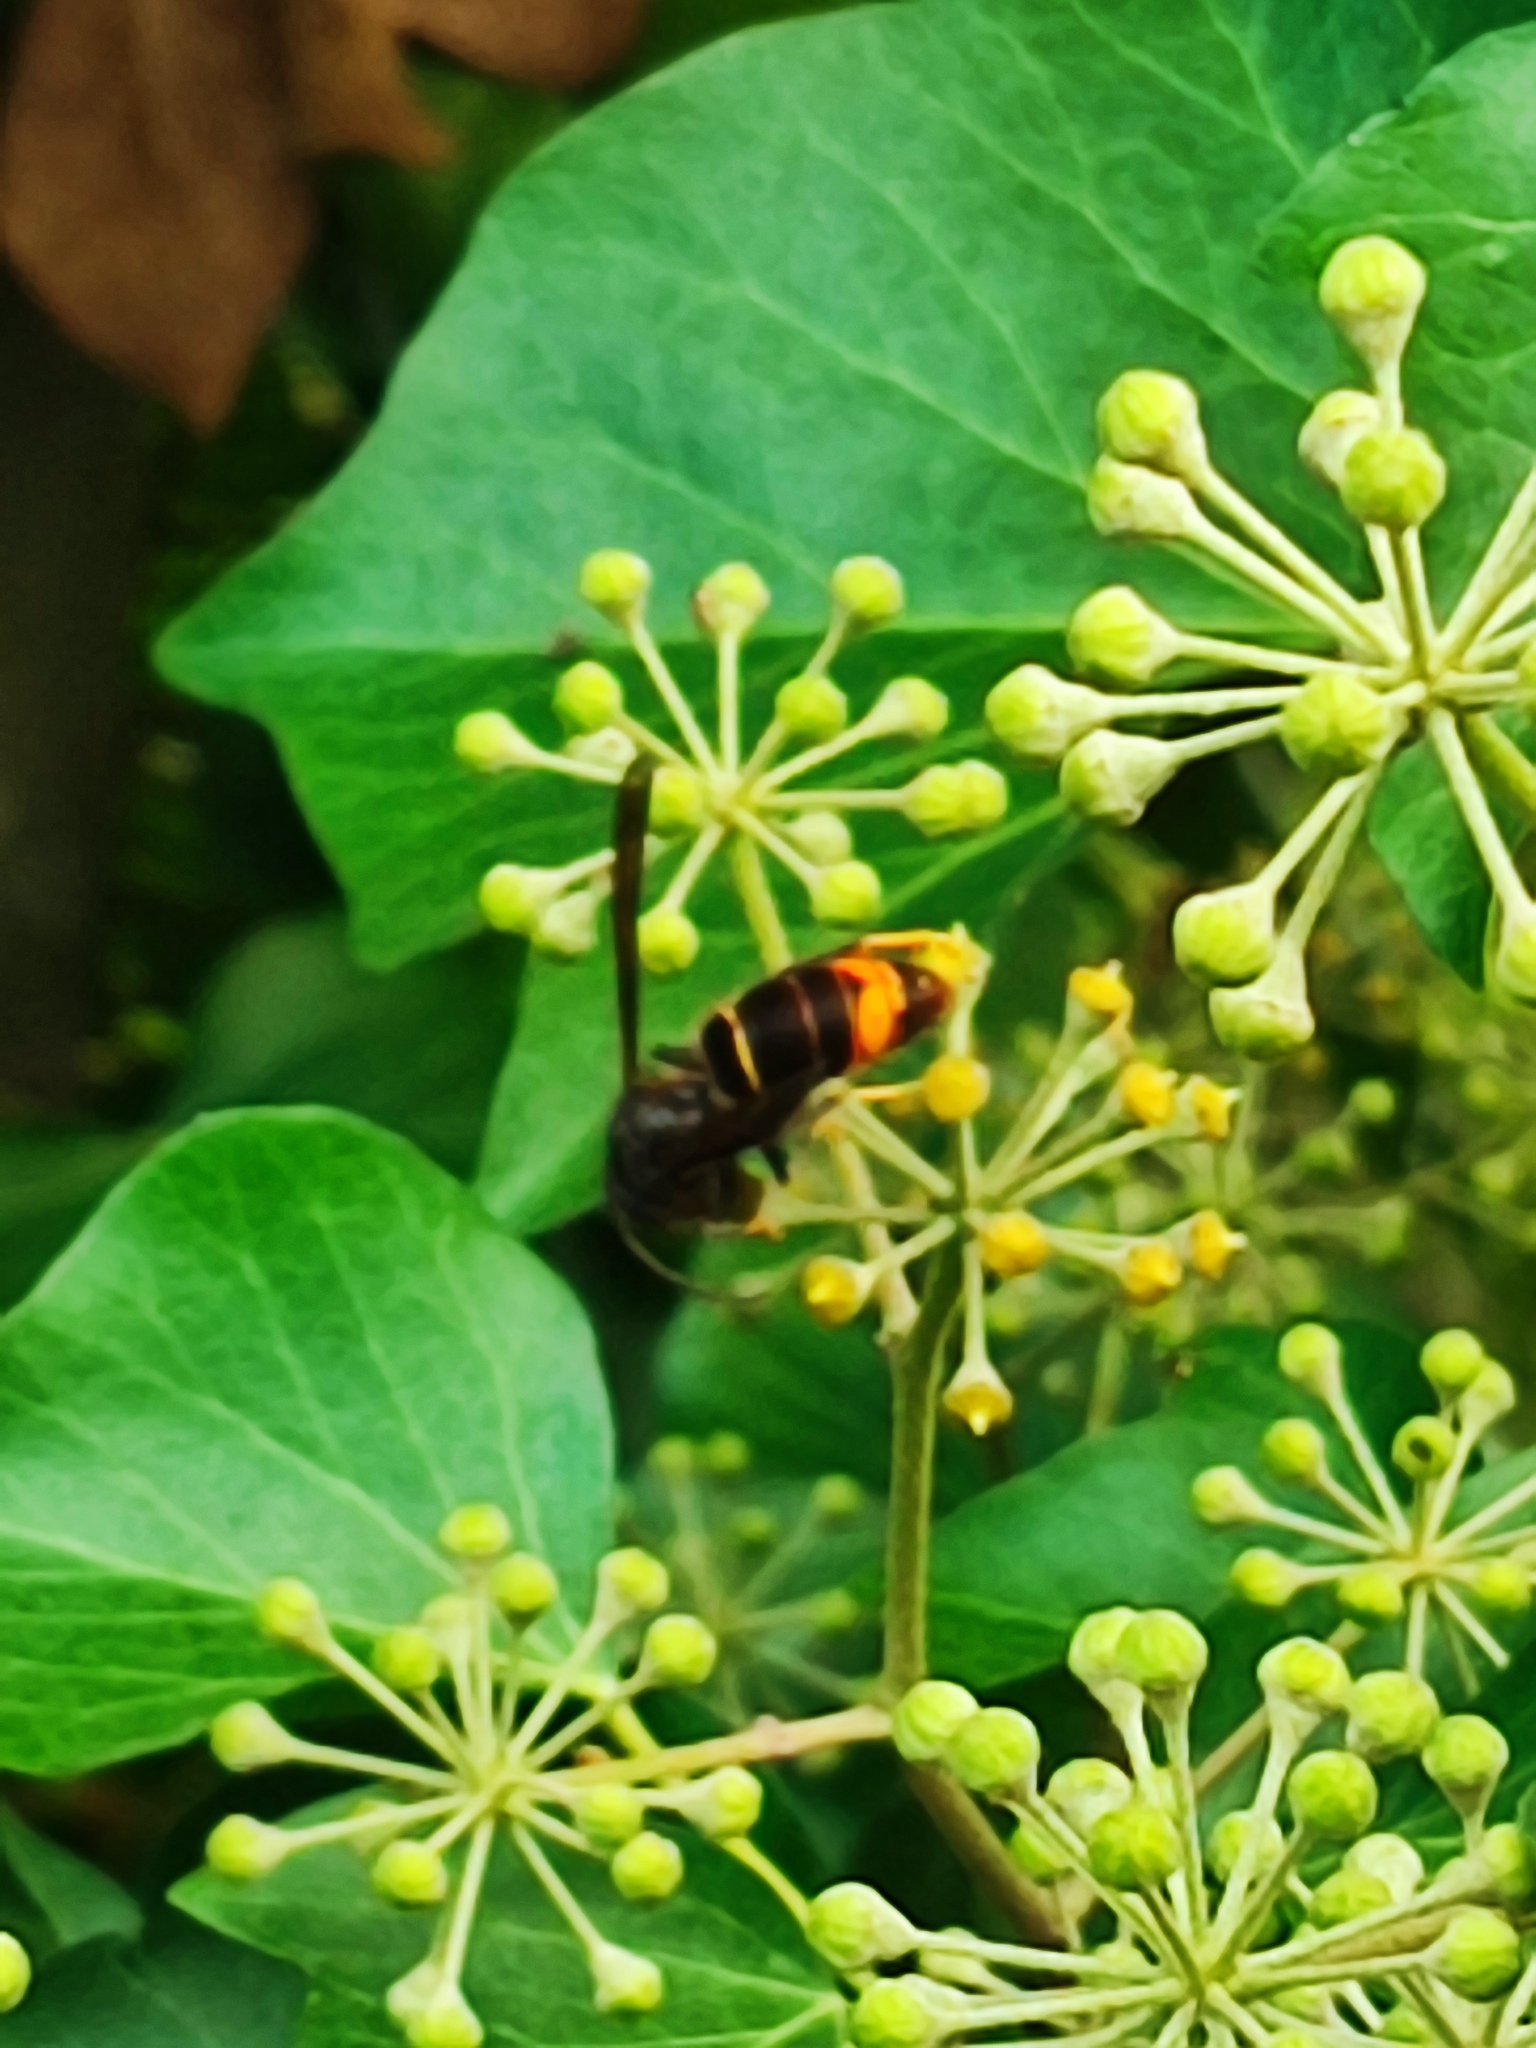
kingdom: Animalia
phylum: Arthropoda
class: Insecta
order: Hymenoptera
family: Vespidae
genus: Vespa
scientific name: Vespa velutina
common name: Asian hornet
